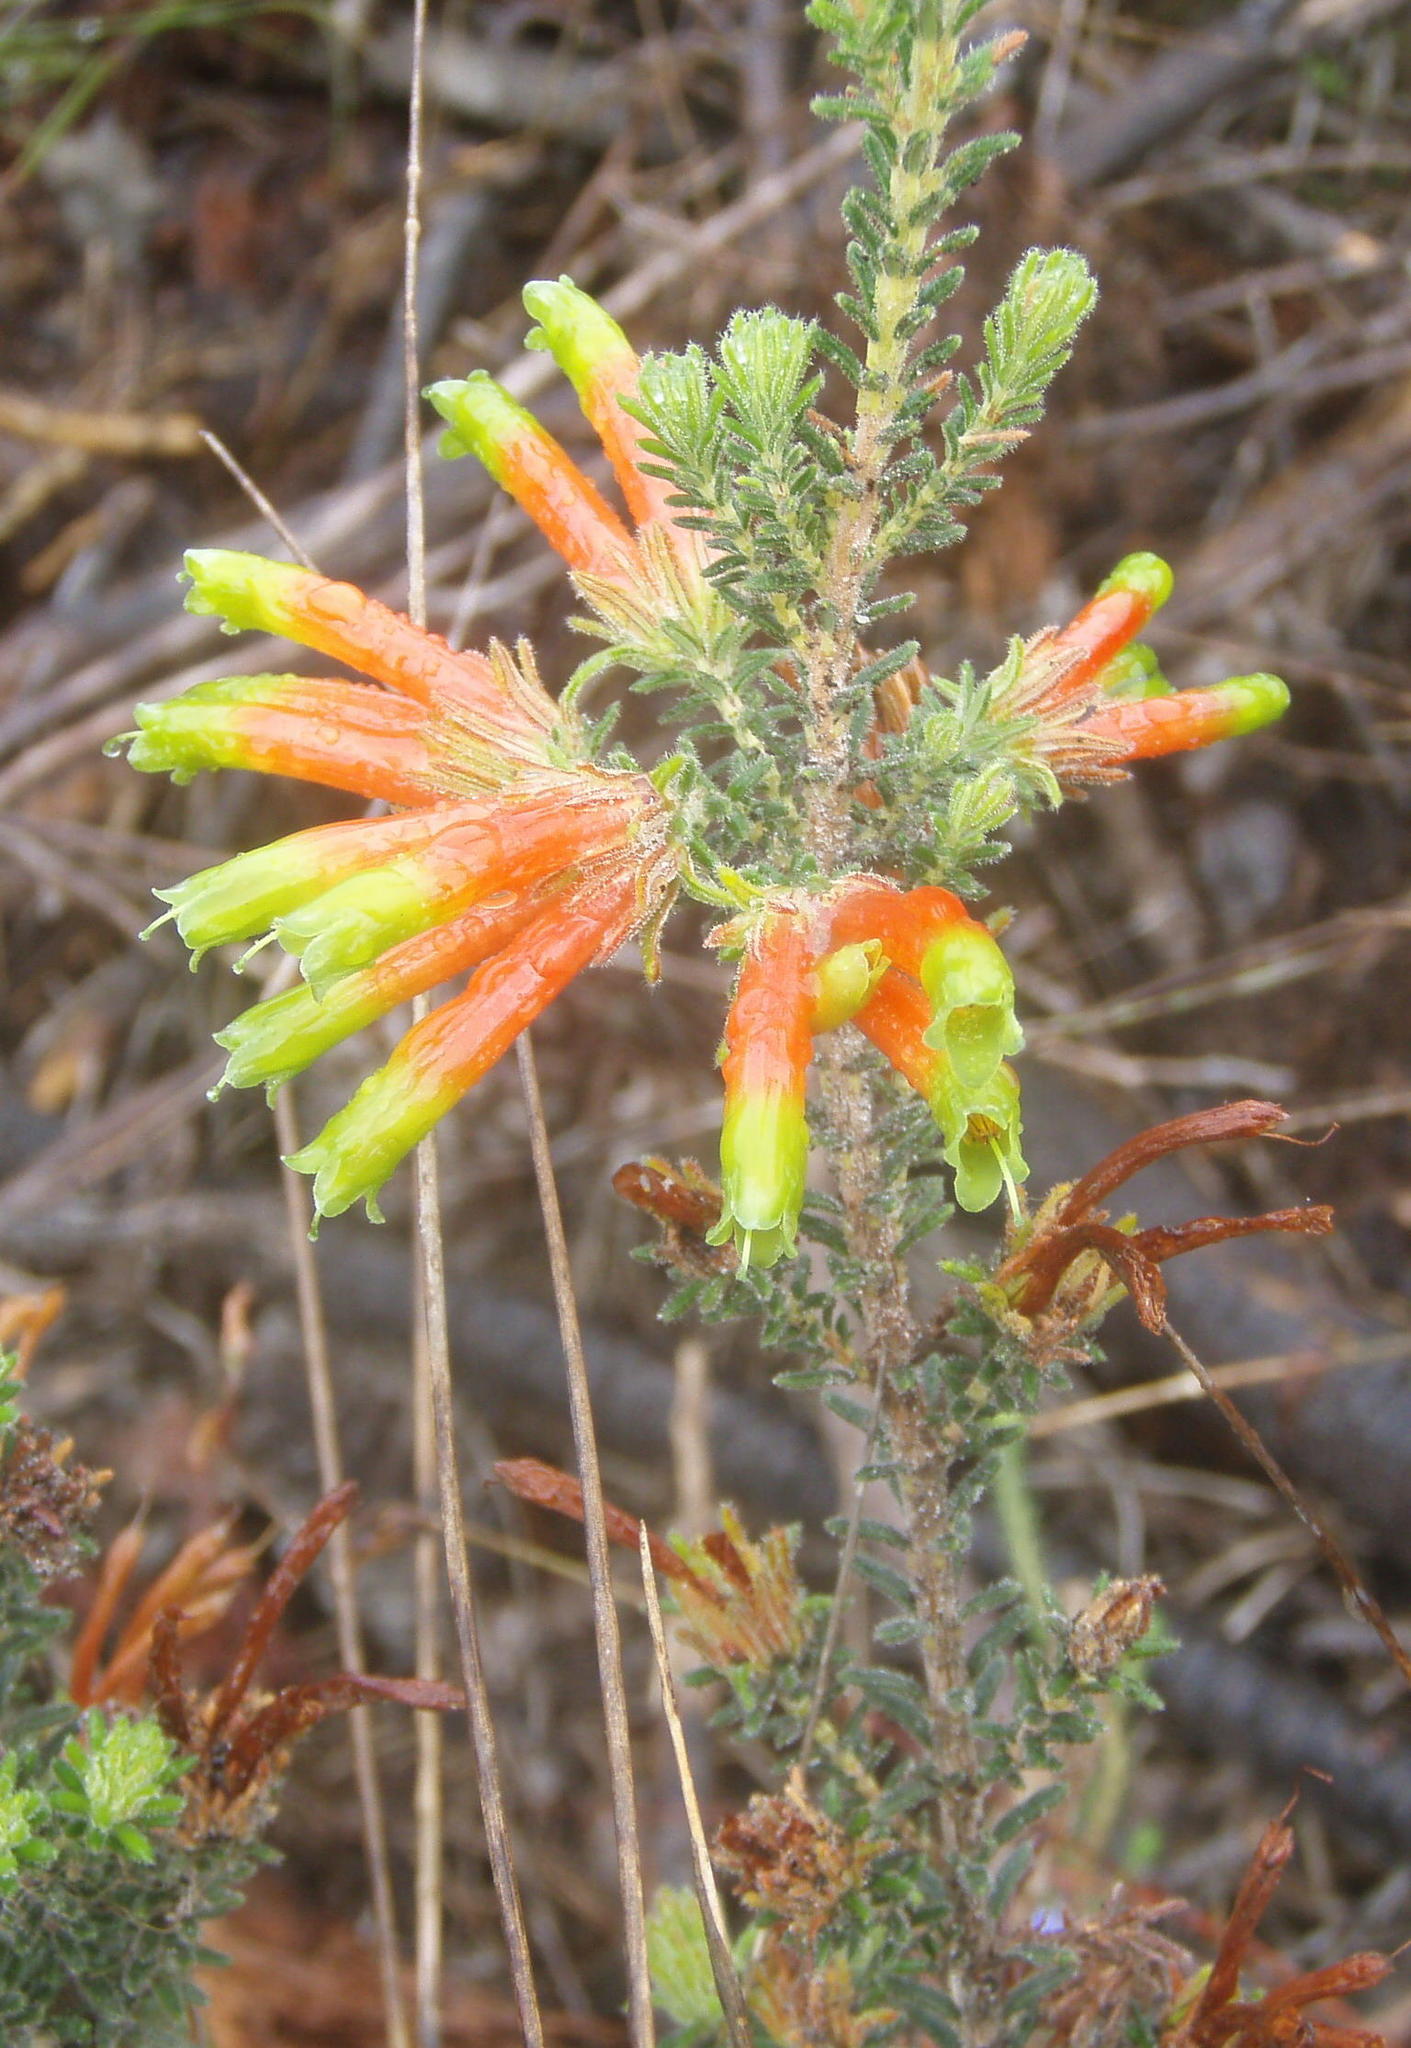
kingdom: Plantae
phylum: Tracheophyta
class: Magnoliopsida
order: Ericales
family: Ericaceae
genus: Erica
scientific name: Erica unicolor
